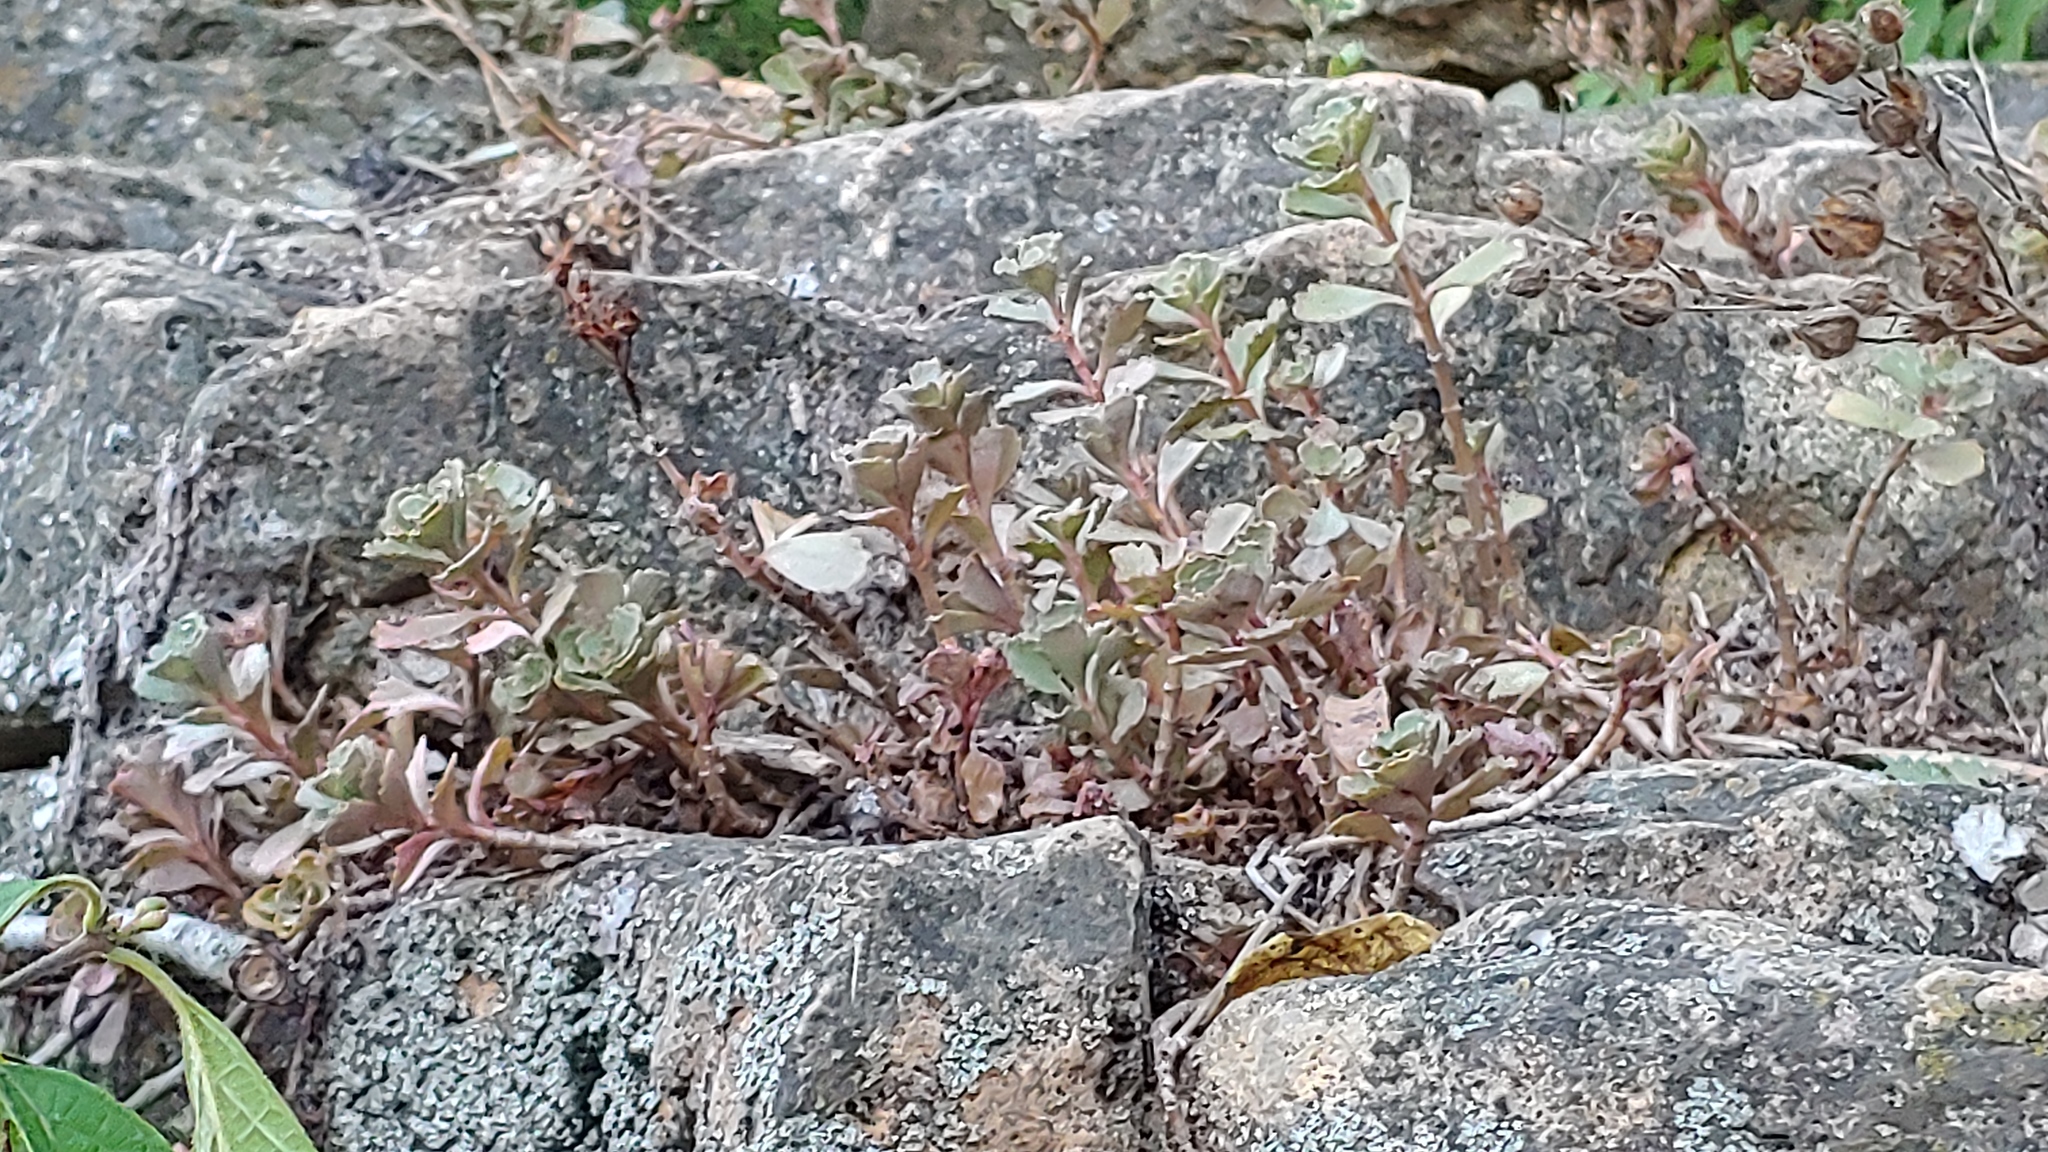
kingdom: Plantae
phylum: Tracheophyta
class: Magnoliopsida
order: Saxifragales
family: Crassulaceae
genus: Sedum
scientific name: Sedum ternatum
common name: Wild stonecrop
